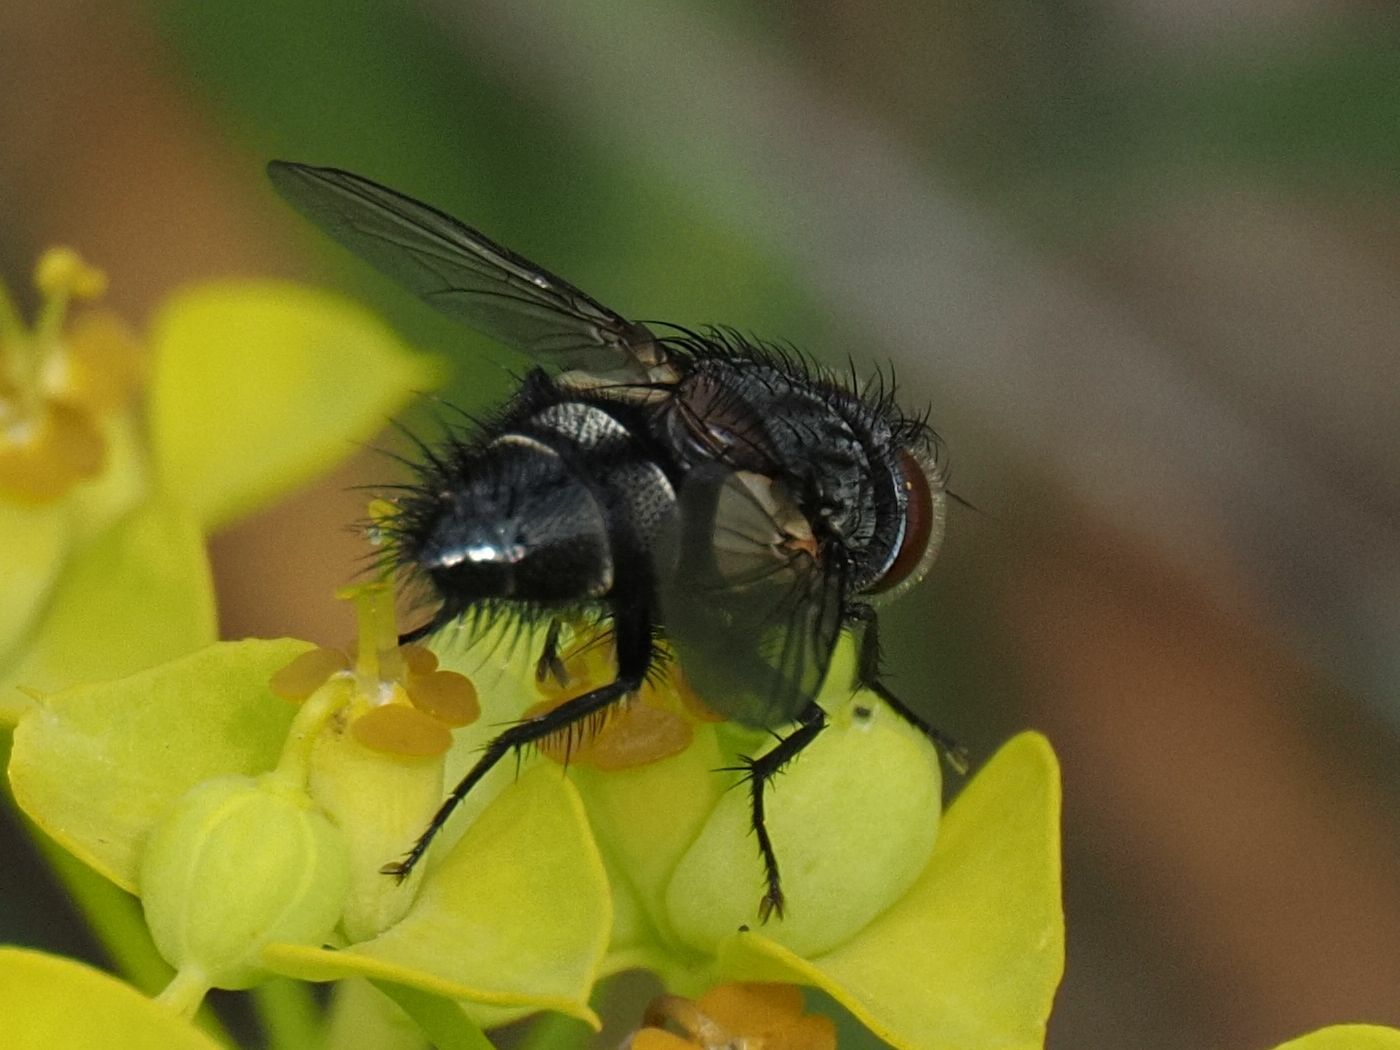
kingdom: Animalia
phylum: Arthropoda
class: Insecta
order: Diptera
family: Tachinidae
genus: Aplomya
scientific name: Aplomya confinis
